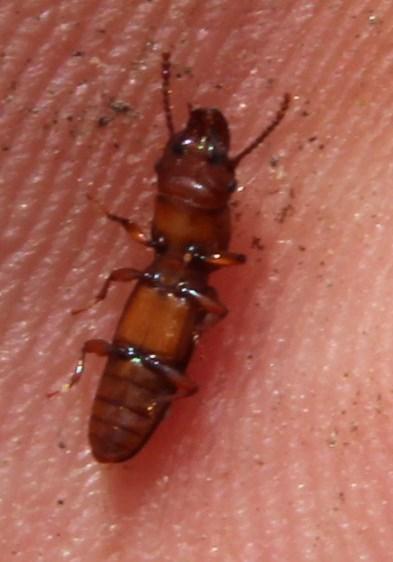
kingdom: Animalia
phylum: Arthropoda
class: Insecta
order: Coleoptera
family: Prostomidae
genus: Prostomis
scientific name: Prostomis
